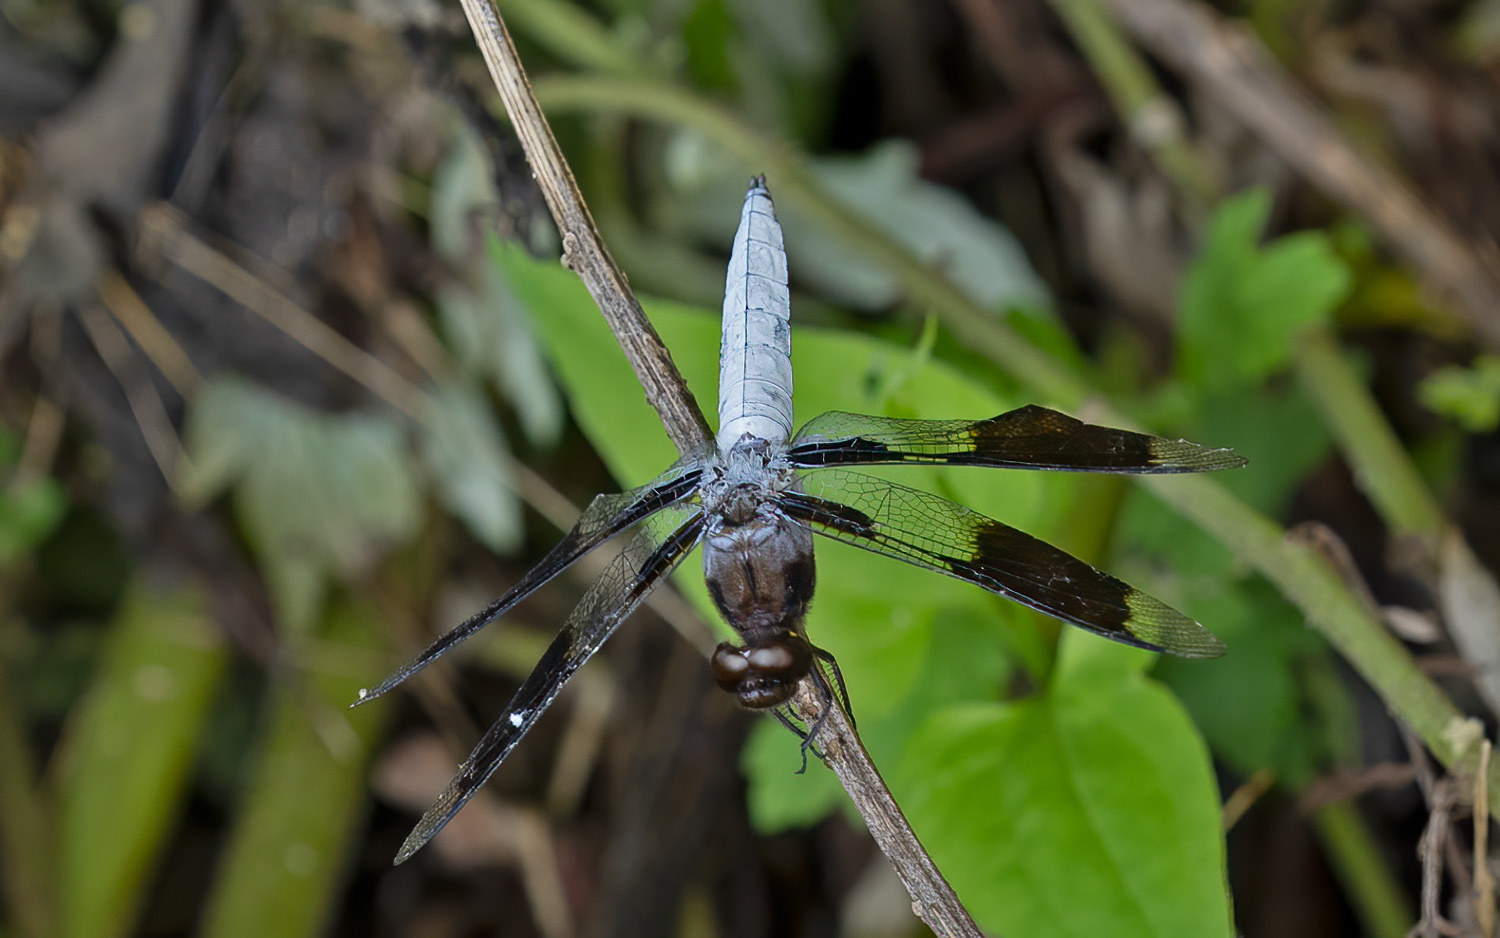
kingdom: Animalia
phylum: Arthropoda
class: Insecta
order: Odonata
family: Libellulidae
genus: Plathemis
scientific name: Plathemis lydia
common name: Common whitetail
